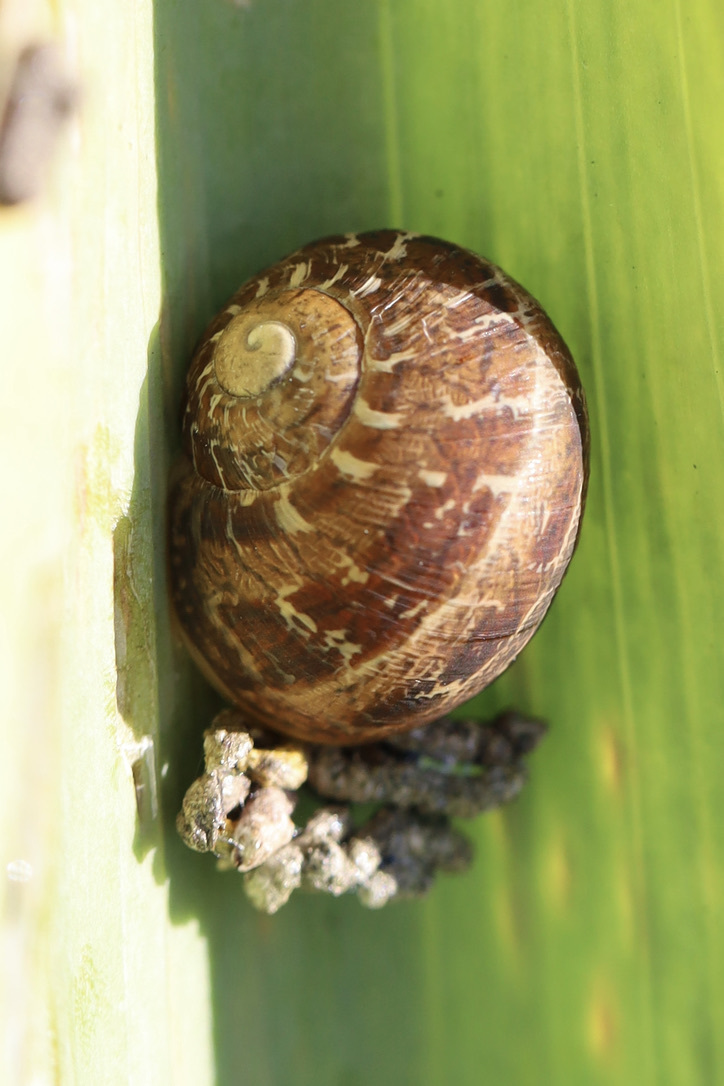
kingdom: Animalia
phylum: Mollusca
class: Gastropoda
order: Stylommatophora
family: Helicidae
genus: Cornu
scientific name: Cornu aspersum
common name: Brown garden snail
